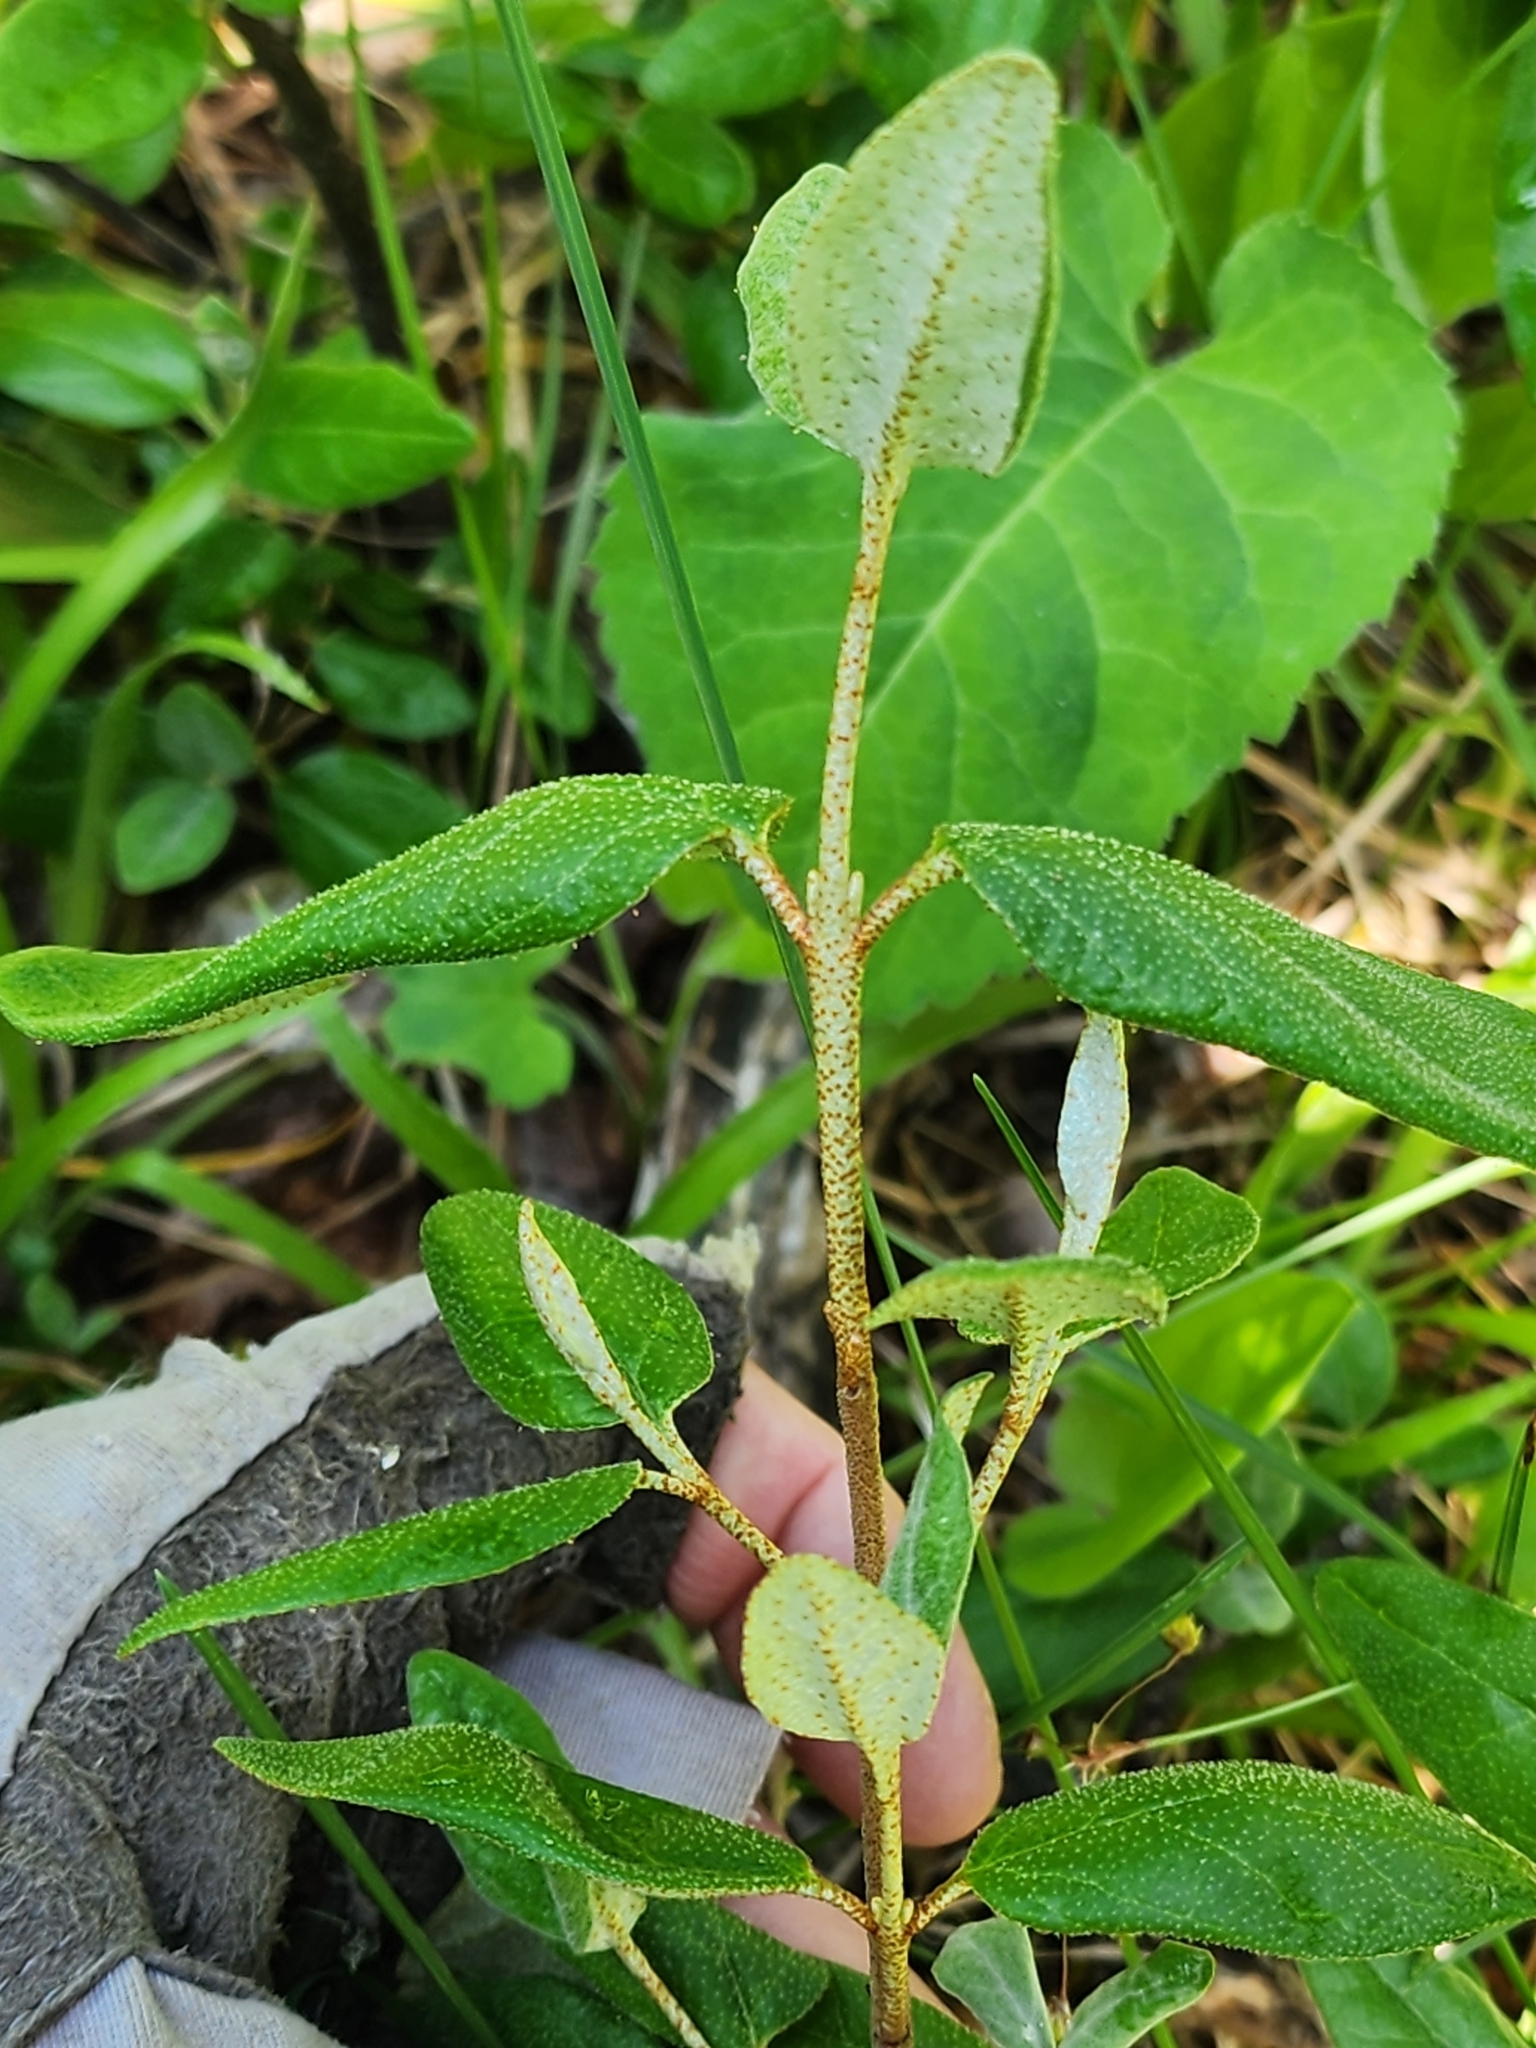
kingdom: Plantae
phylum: Tracheophyta
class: Magnoliopsida
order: Rosales
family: Elaeagnaceae
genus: Shepherdia
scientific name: Shepherdia canadensis
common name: Soapberry
